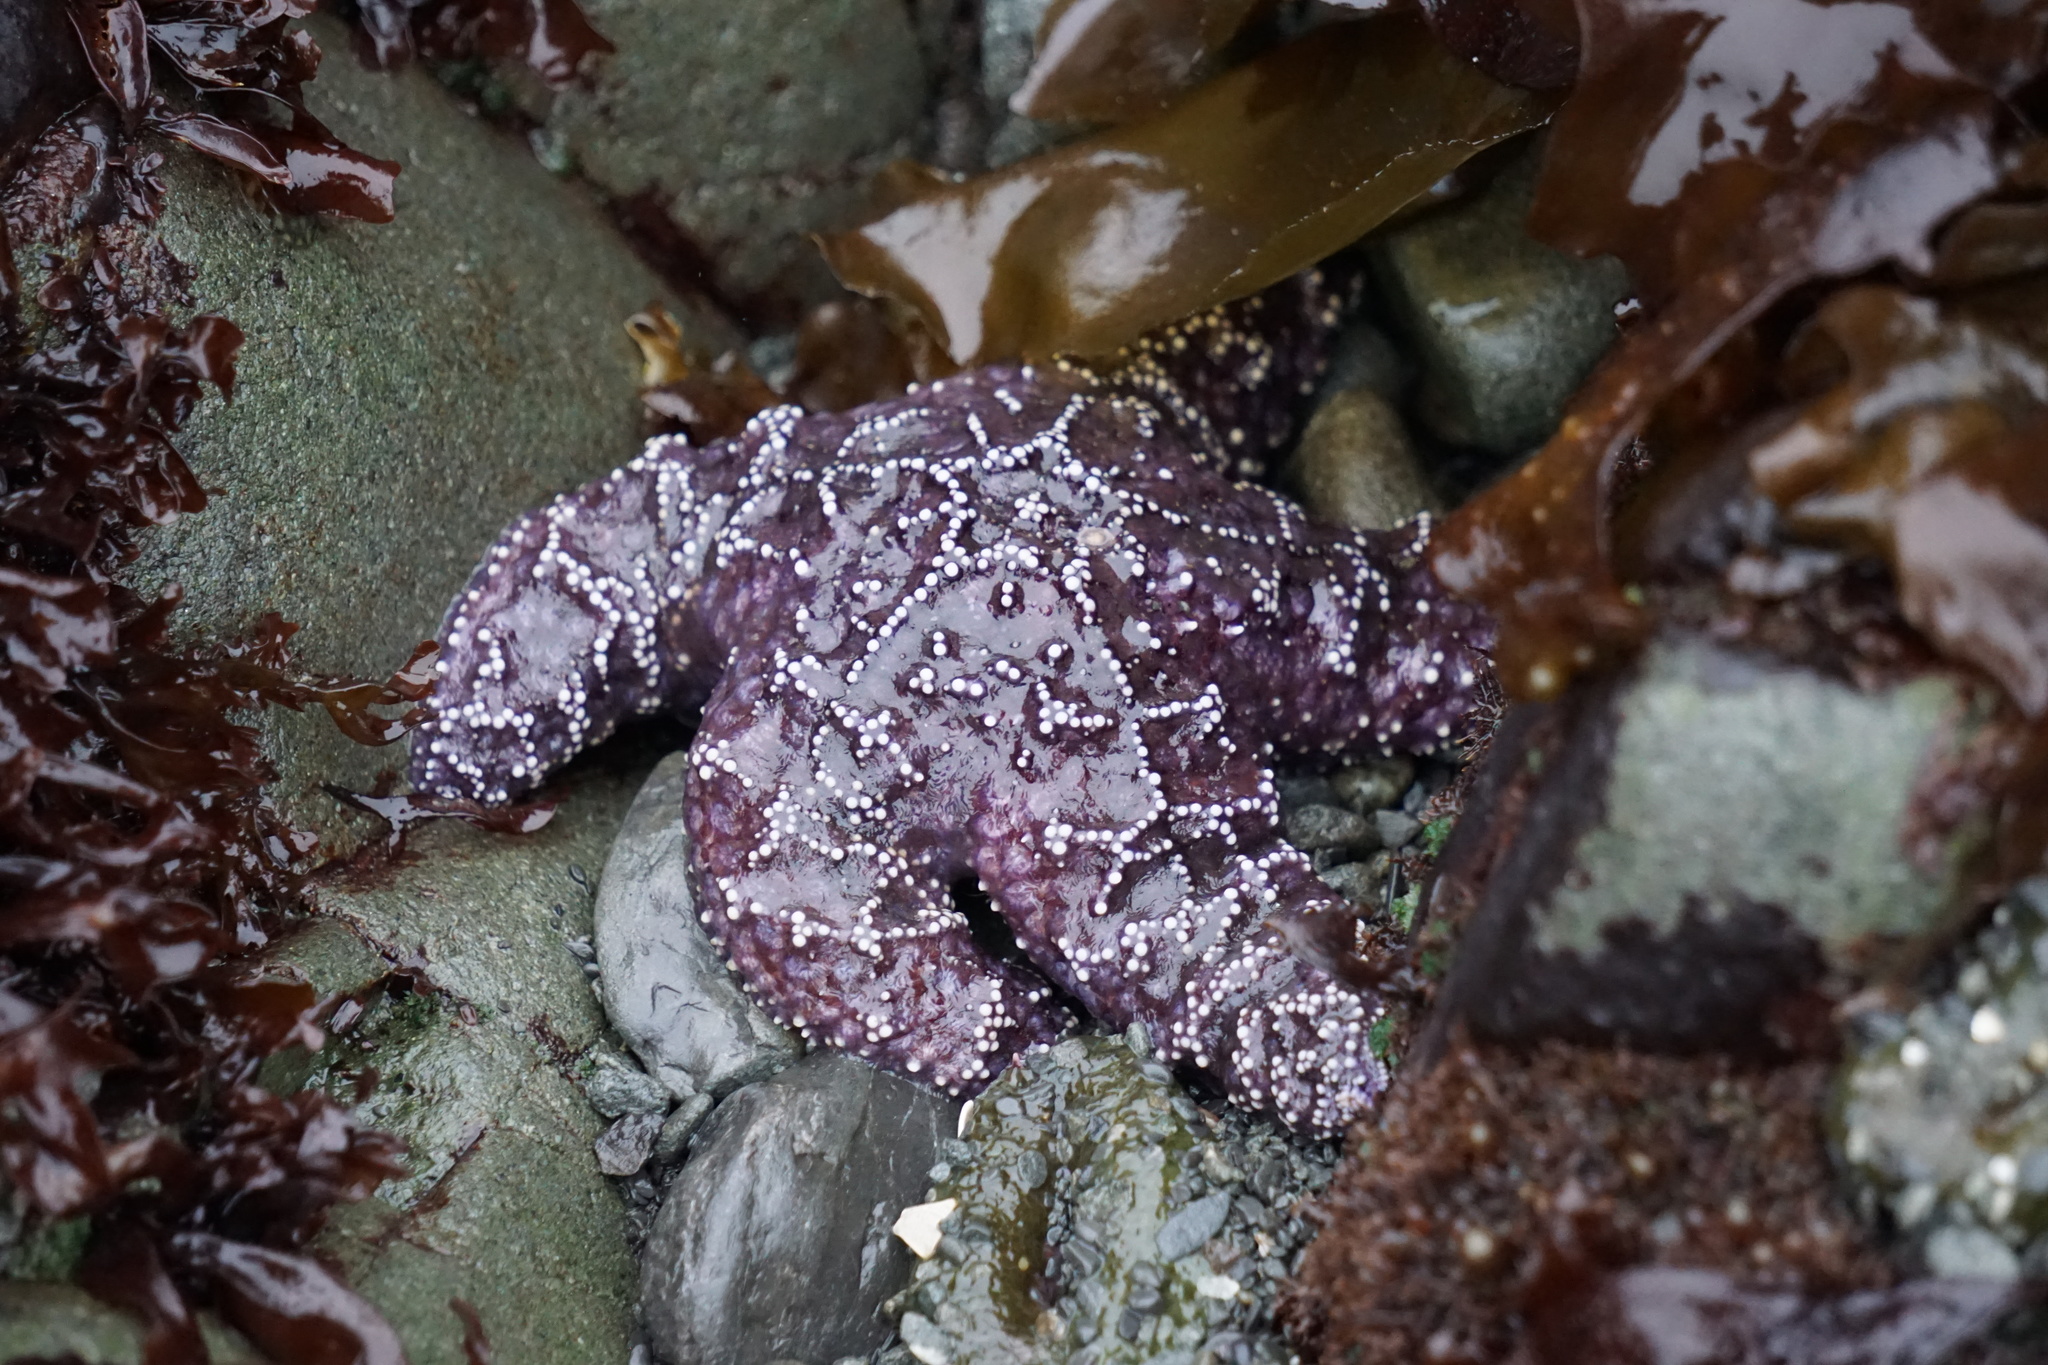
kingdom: Animalia
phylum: Echinodermata
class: Asteroidea
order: Forcipulatida
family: Asteriidae
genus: Pisaster
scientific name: Pisaster ochraceus
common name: Ochre stars
